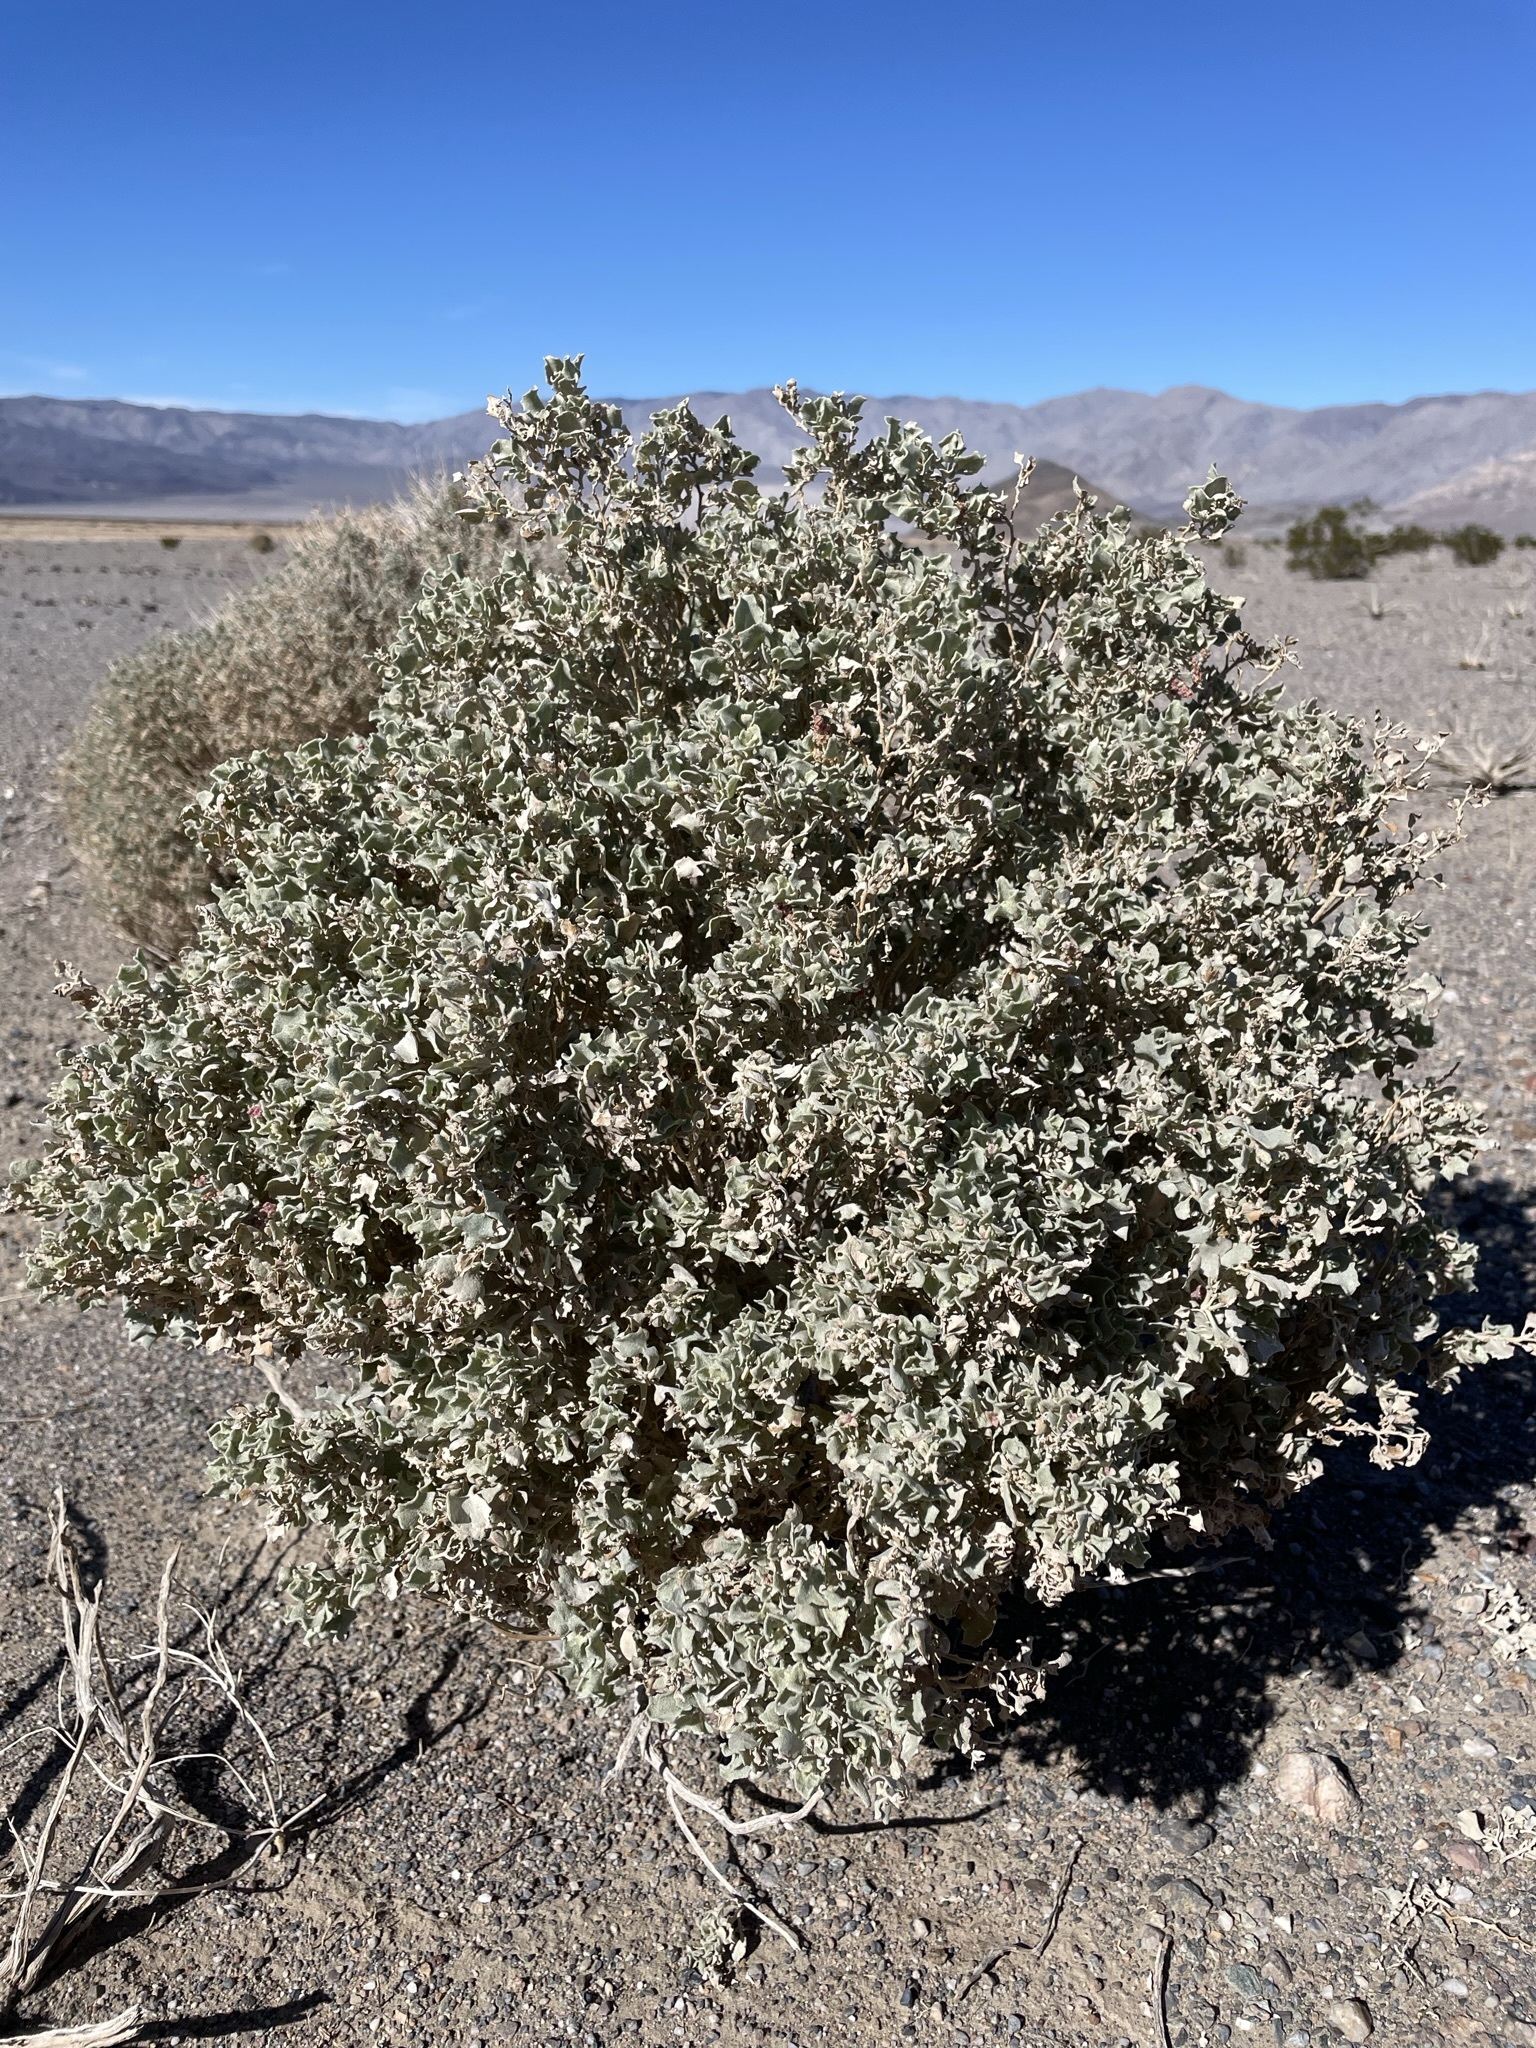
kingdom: Plantae
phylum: Tracheophyta
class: Magnoliopsida
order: Caryophyllales
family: Amaranthaceae
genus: Atriplex
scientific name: Atriplex hymenelytra
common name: Desert-holly
